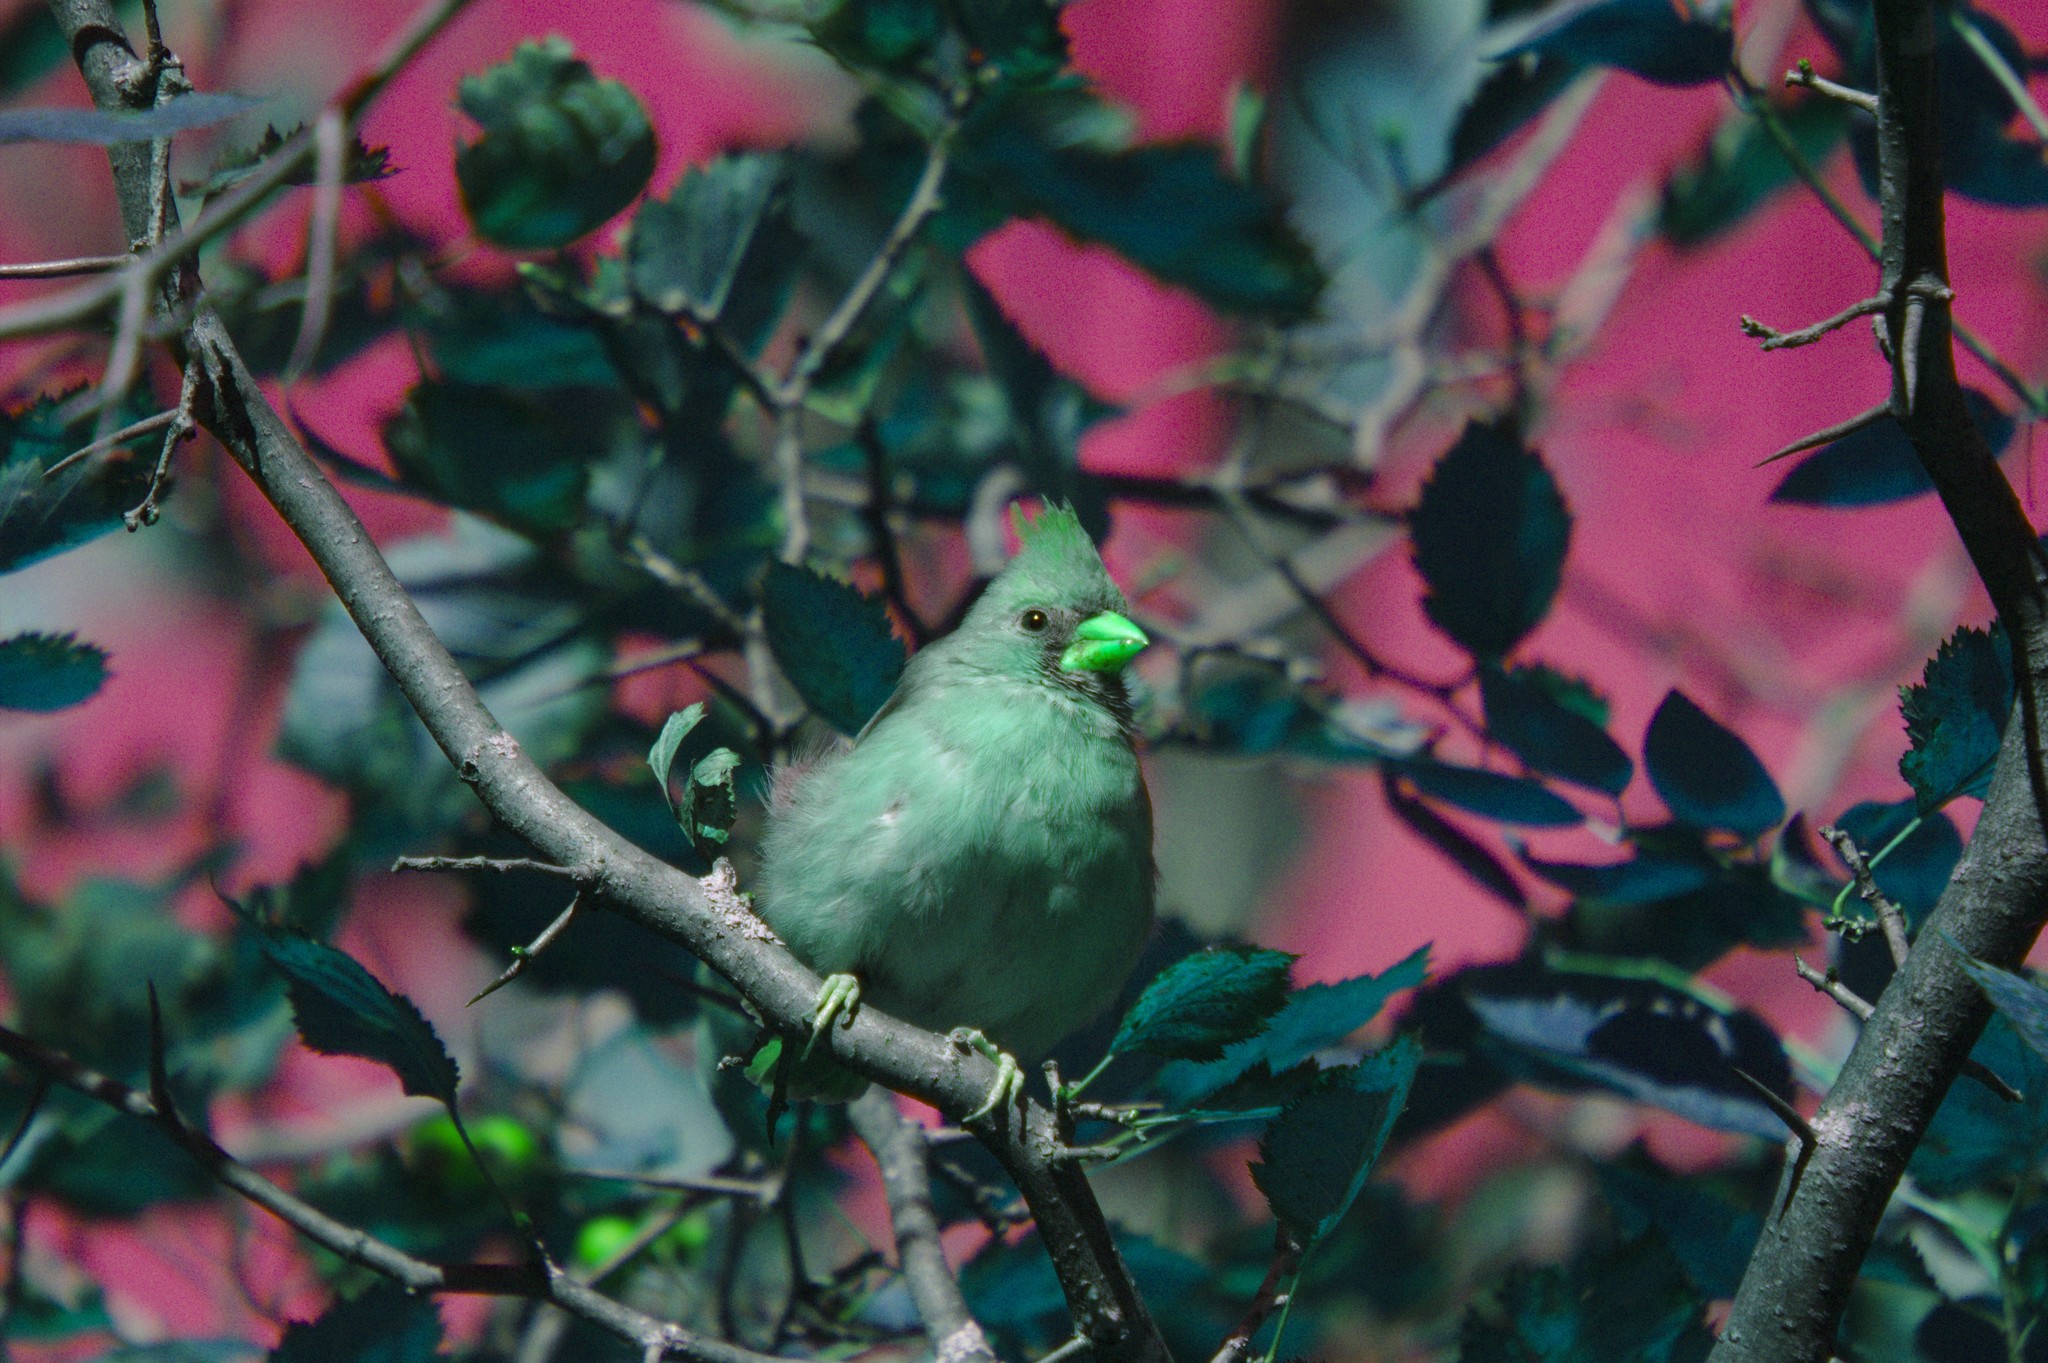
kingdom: Animalia
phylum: Chordata
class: Aves
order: Passeriformes
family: Cardinalidae
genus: Cardinalis
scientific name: Cardinalis cardinalis
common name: Northern cardinal
